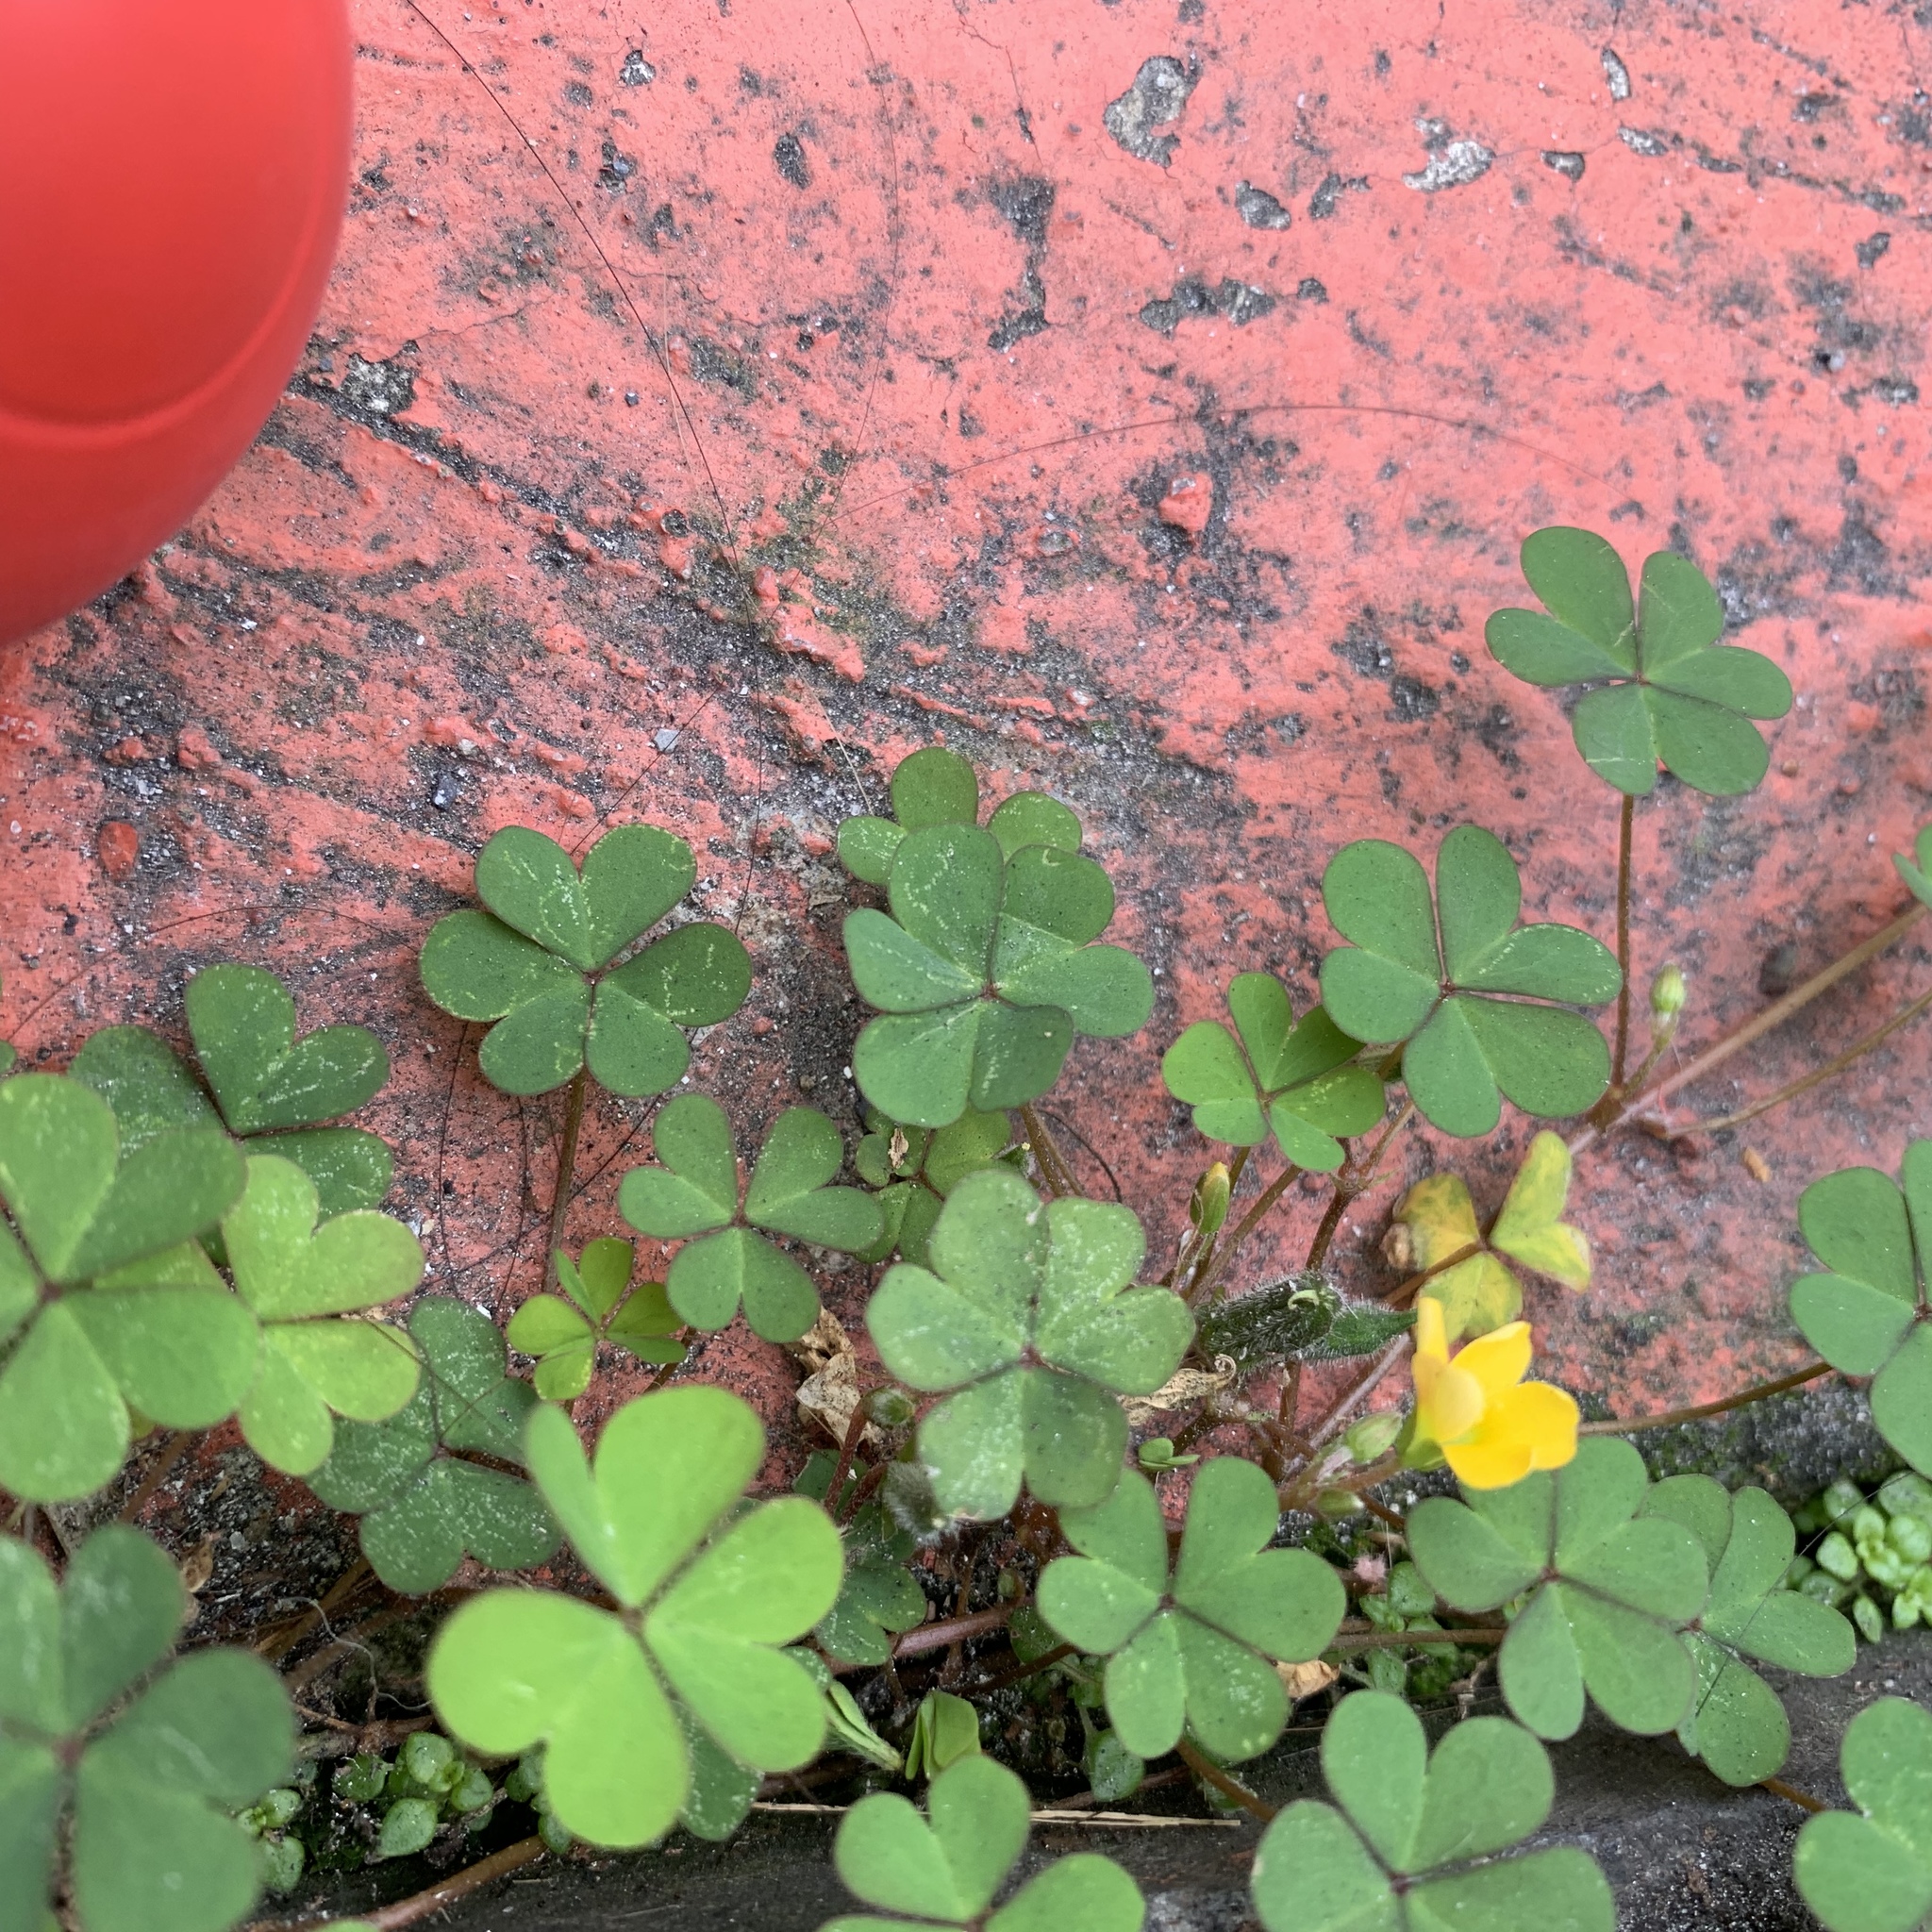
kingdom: Plantae
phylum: Tracheophyta
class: Magnoliopsida
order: Oxalidales
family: Oxalidaceae
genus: Oxalis
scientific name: Oxalis corniculata
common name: Procumbent yellow-sorrel
